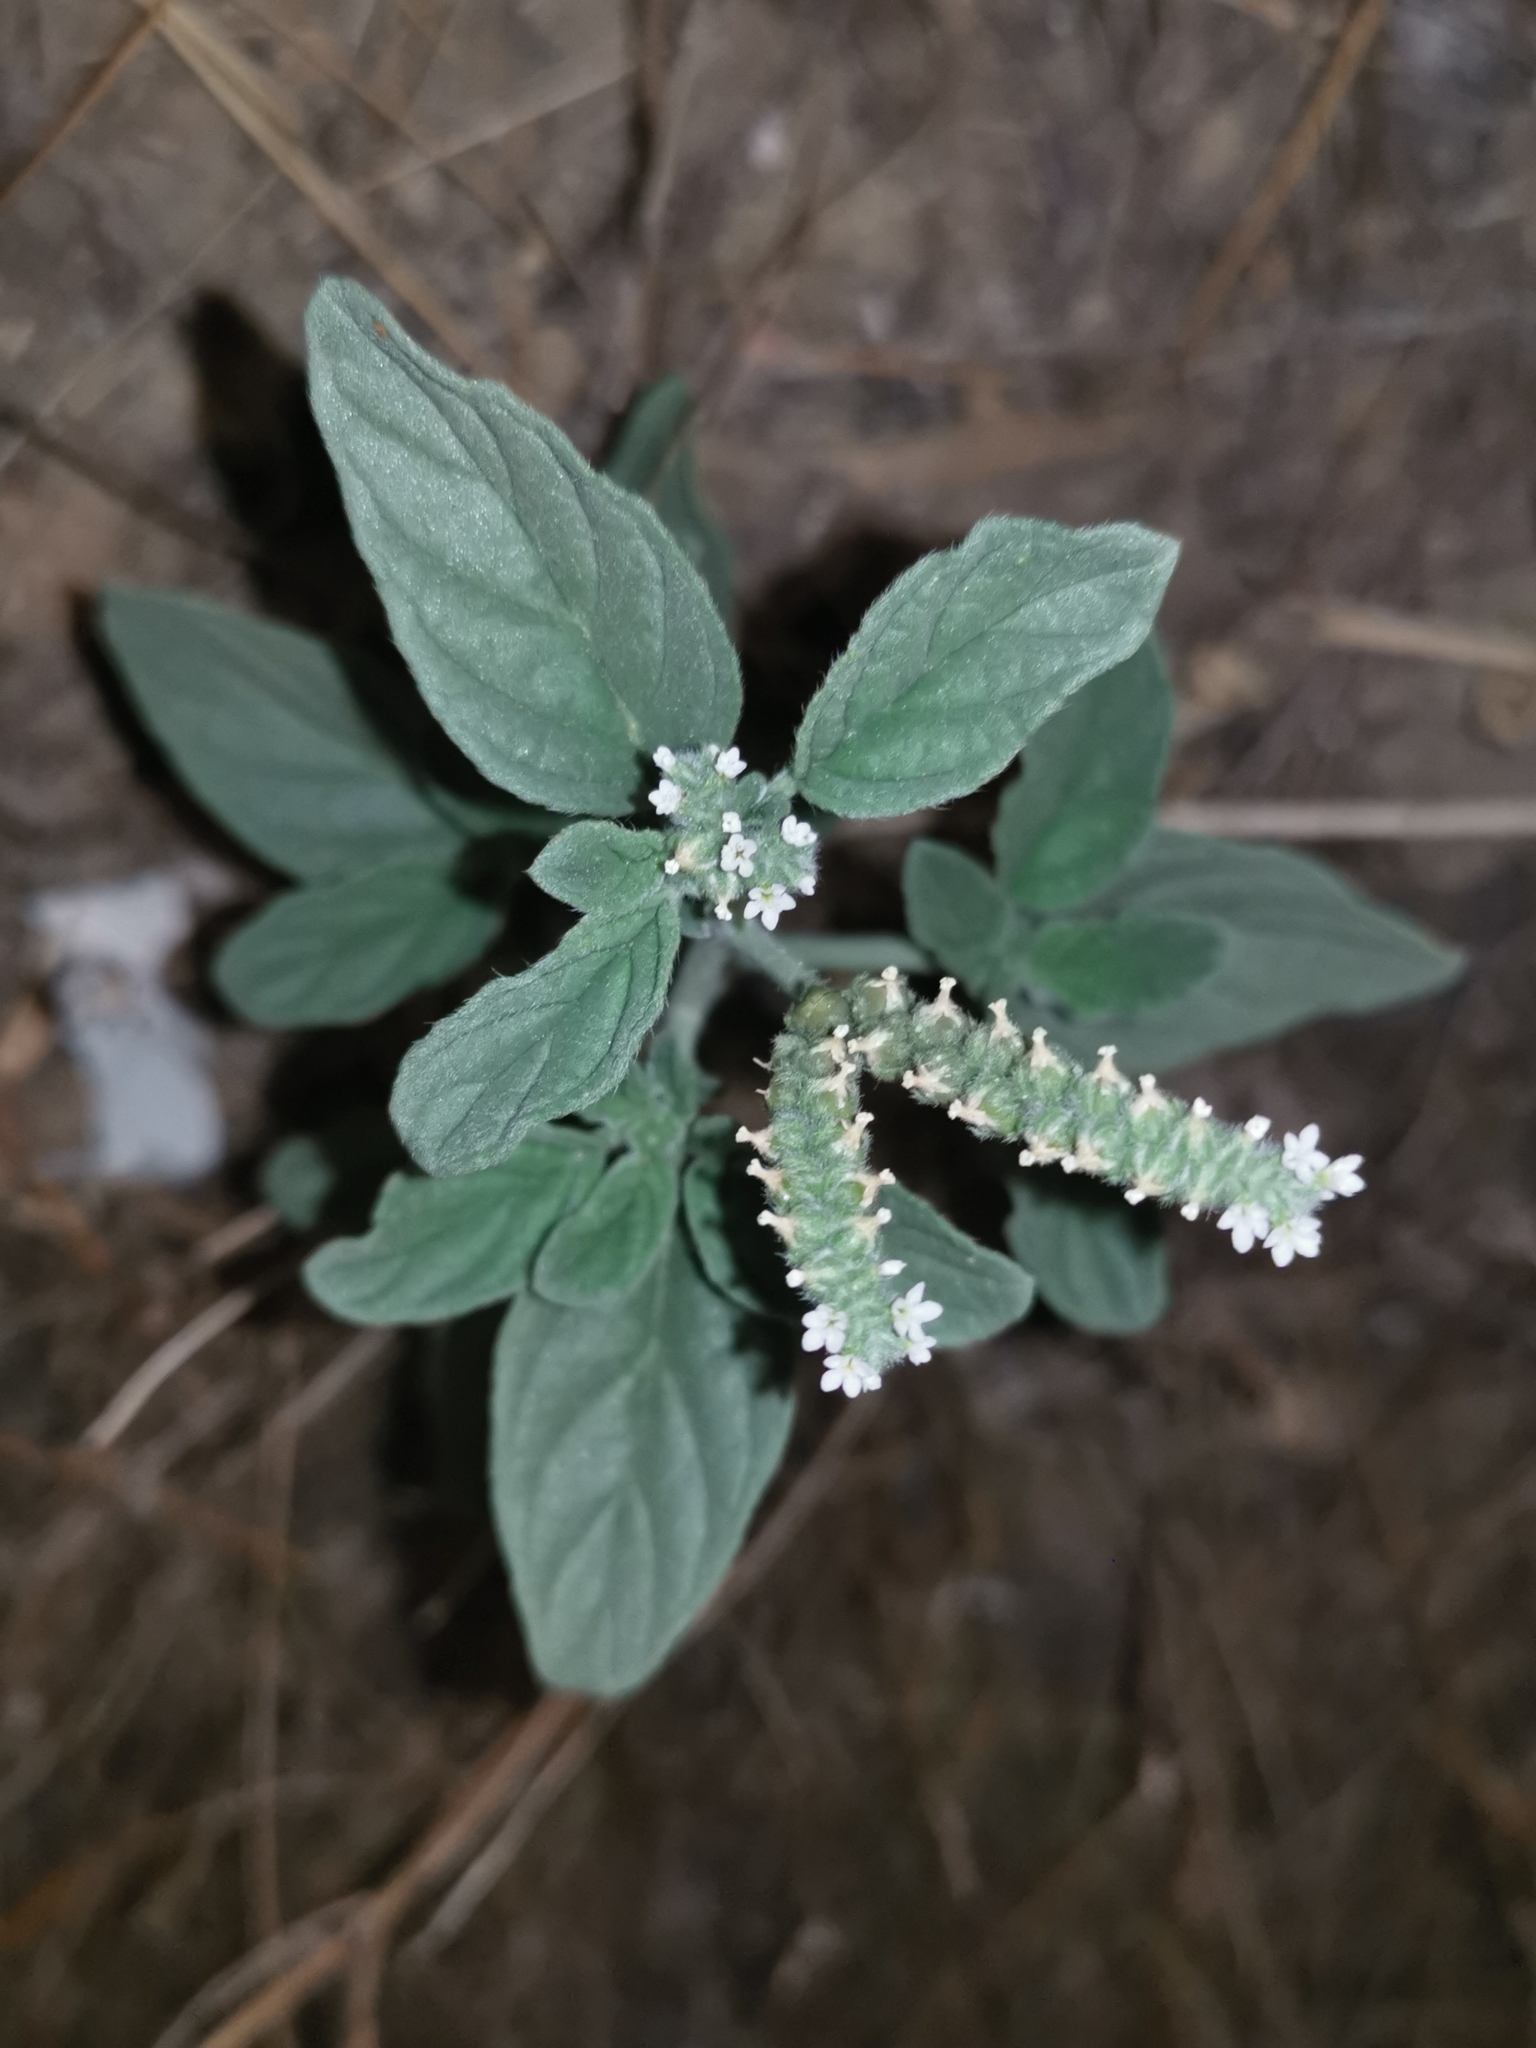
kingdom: Plantae
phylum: Tracheophyta
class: Magnoliopsida
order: Boraginales
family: Heliotropiaceae
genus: Heliotropium
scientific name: Heliotropium europaeum
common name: European heliotrope
